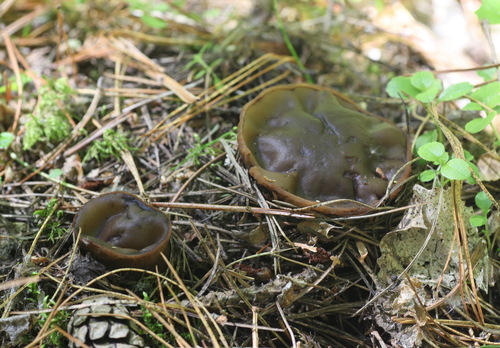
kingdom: Fungi
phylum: Ascomycota
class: Pezizomycetes
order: Pezizales
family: Sarcosomataceae
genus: Sarcosoma
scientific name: Sarcosoma globosum
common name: Charred-pancake cup
